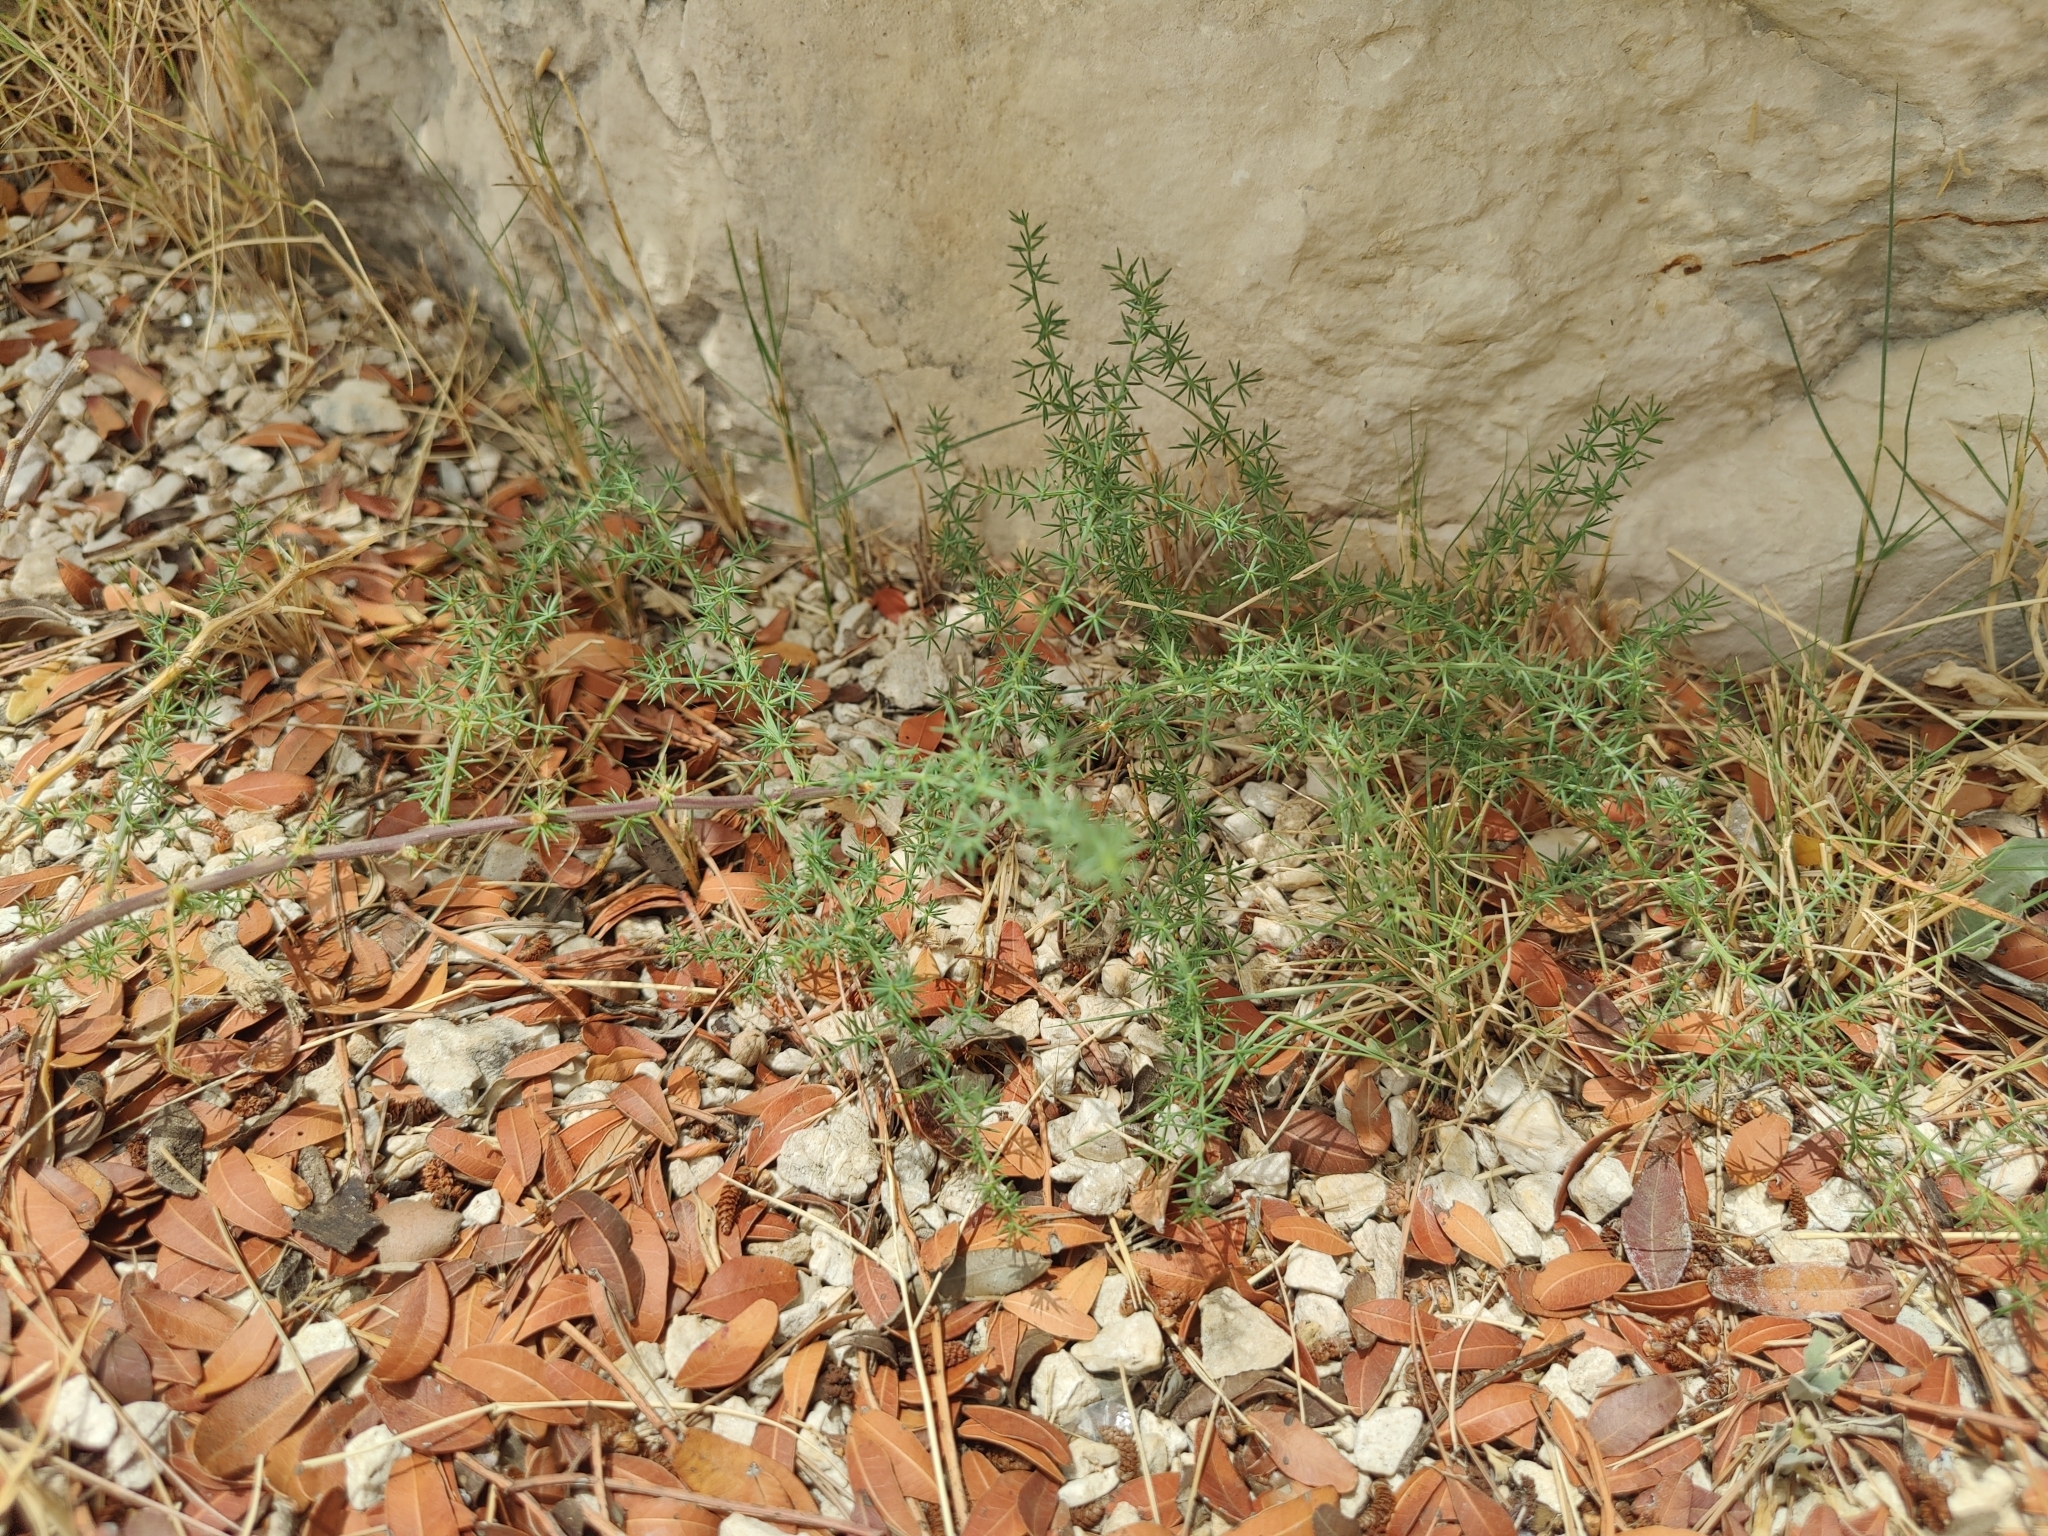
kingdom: Plantae
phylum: Tracheophyta
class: Liliopsida
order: Asparagales
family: Asparagaceae
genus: Asparagus
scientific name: Asparagus acutifolius
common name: Wild asparagus
